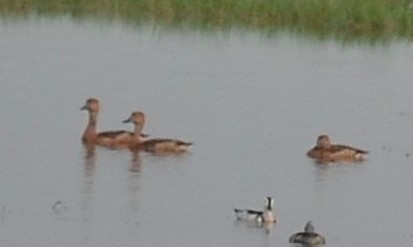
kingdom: Animalia
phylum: Chordata
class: Aves
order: Anseriformes
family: Anatidae
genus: Dendrocygna
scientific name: Dendrocygna javanica
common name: Lesser whistling-duck
